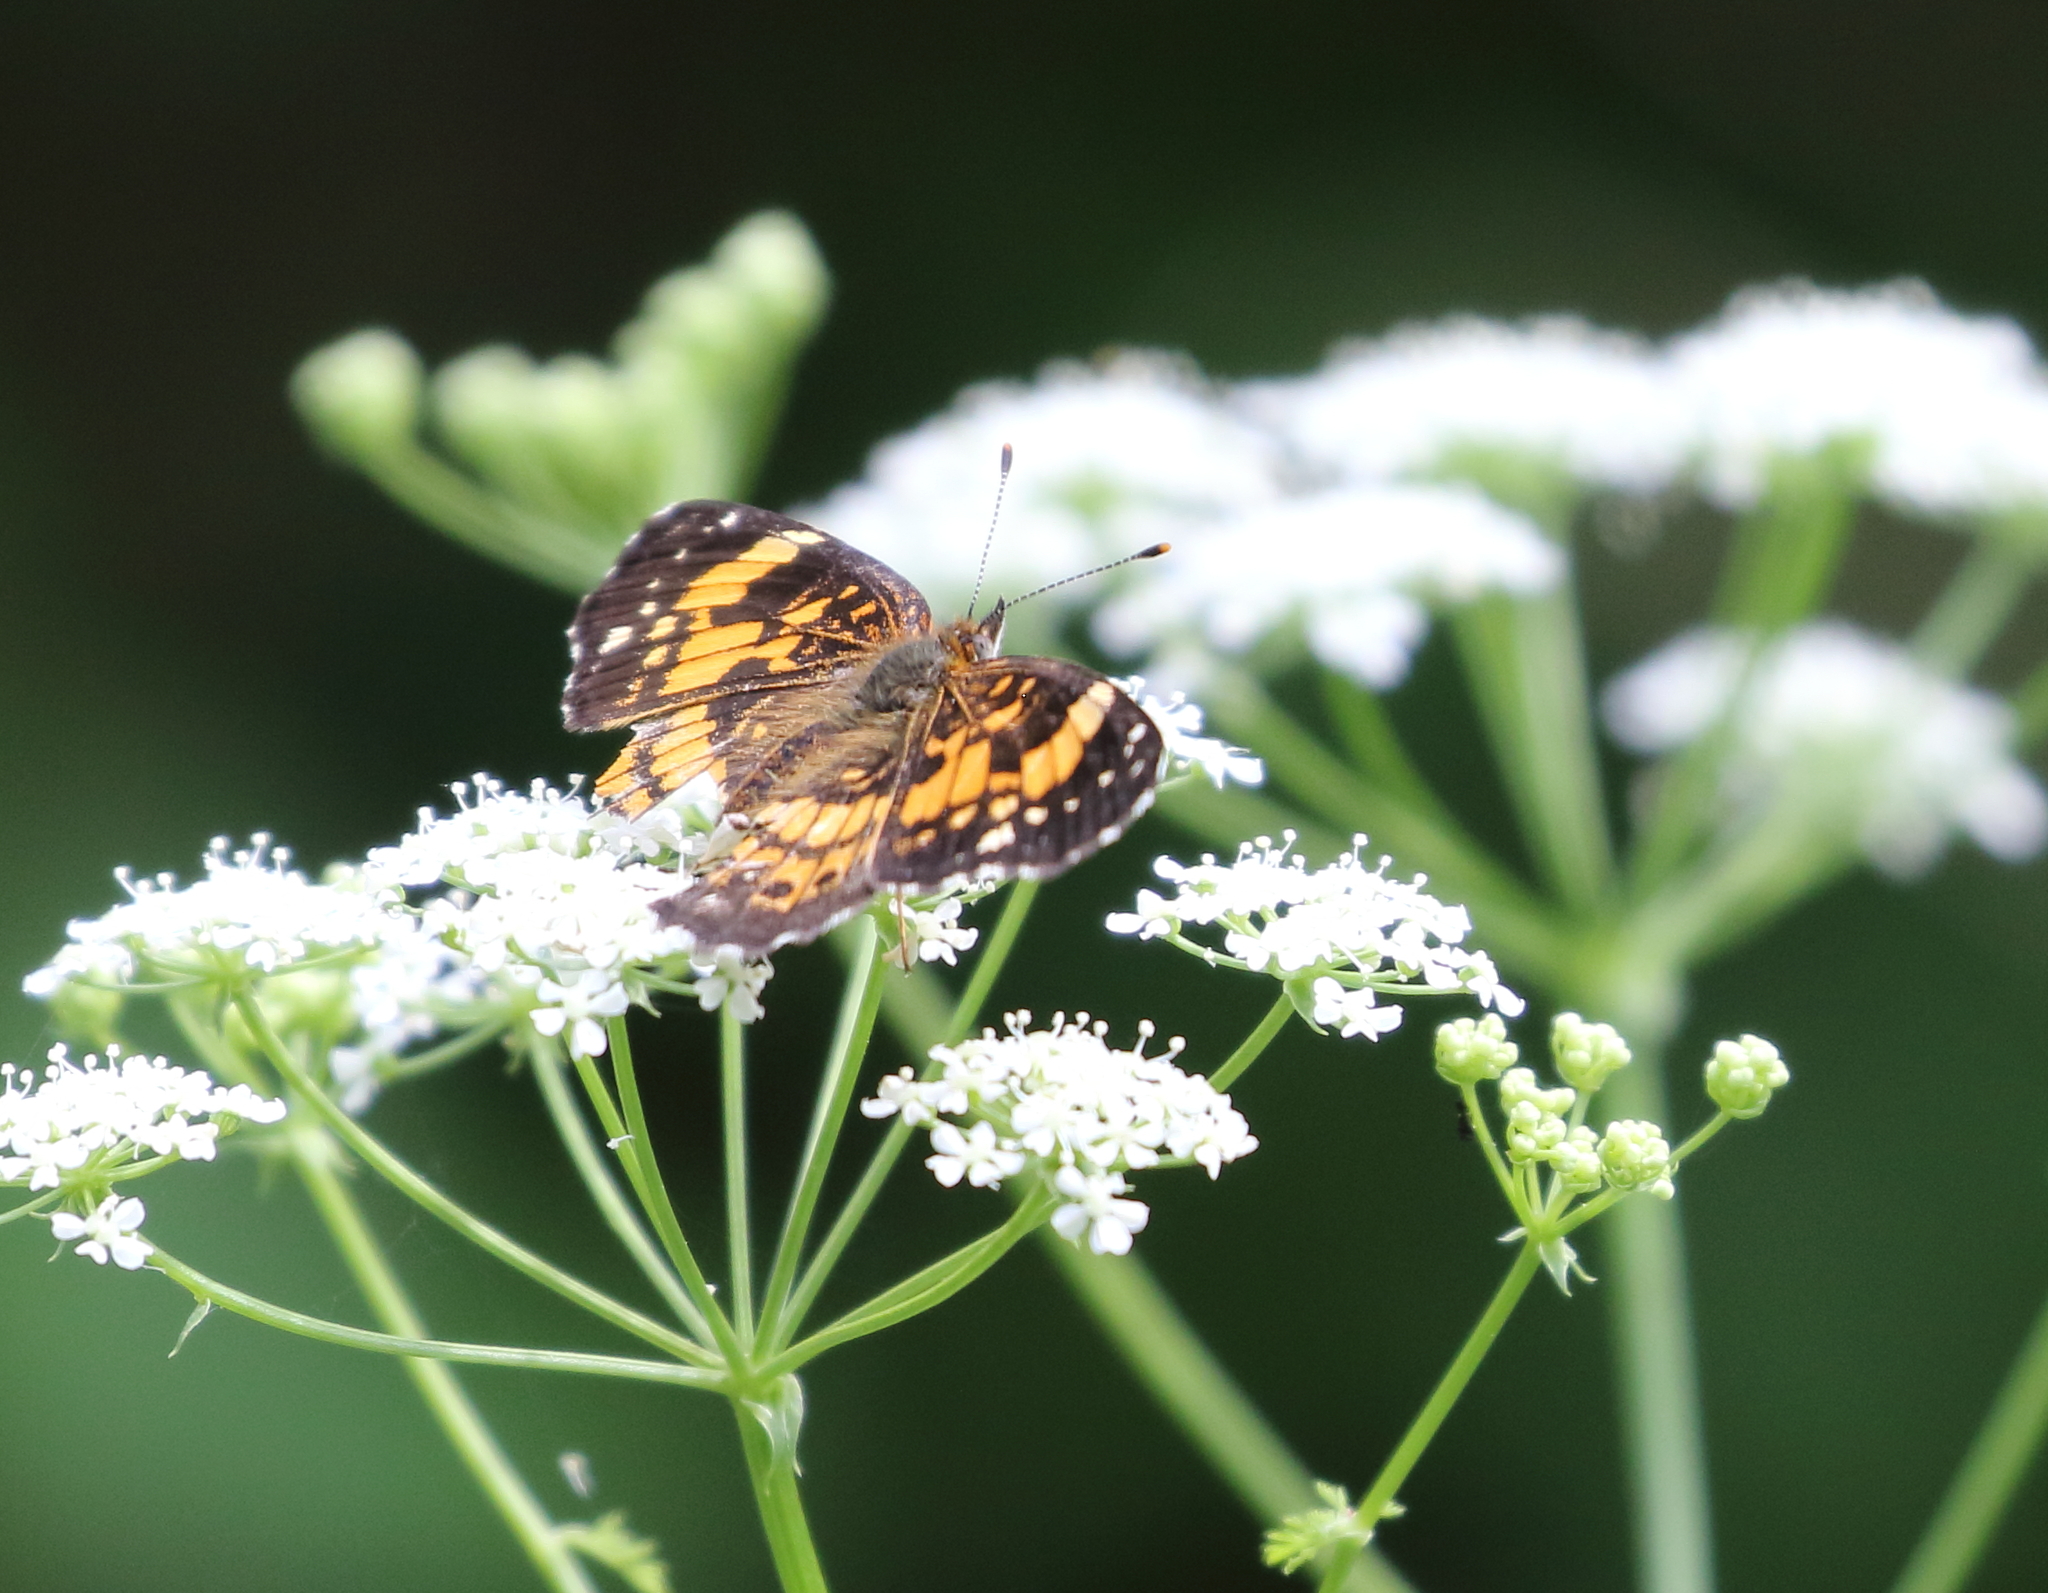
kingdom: Animalia
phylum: Arthropoda
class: Insecta
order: Lepidoptera
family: Nymphalidae
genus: Chlosyne
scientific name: Chlosyne nycteis
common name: Silvery checkerspot
